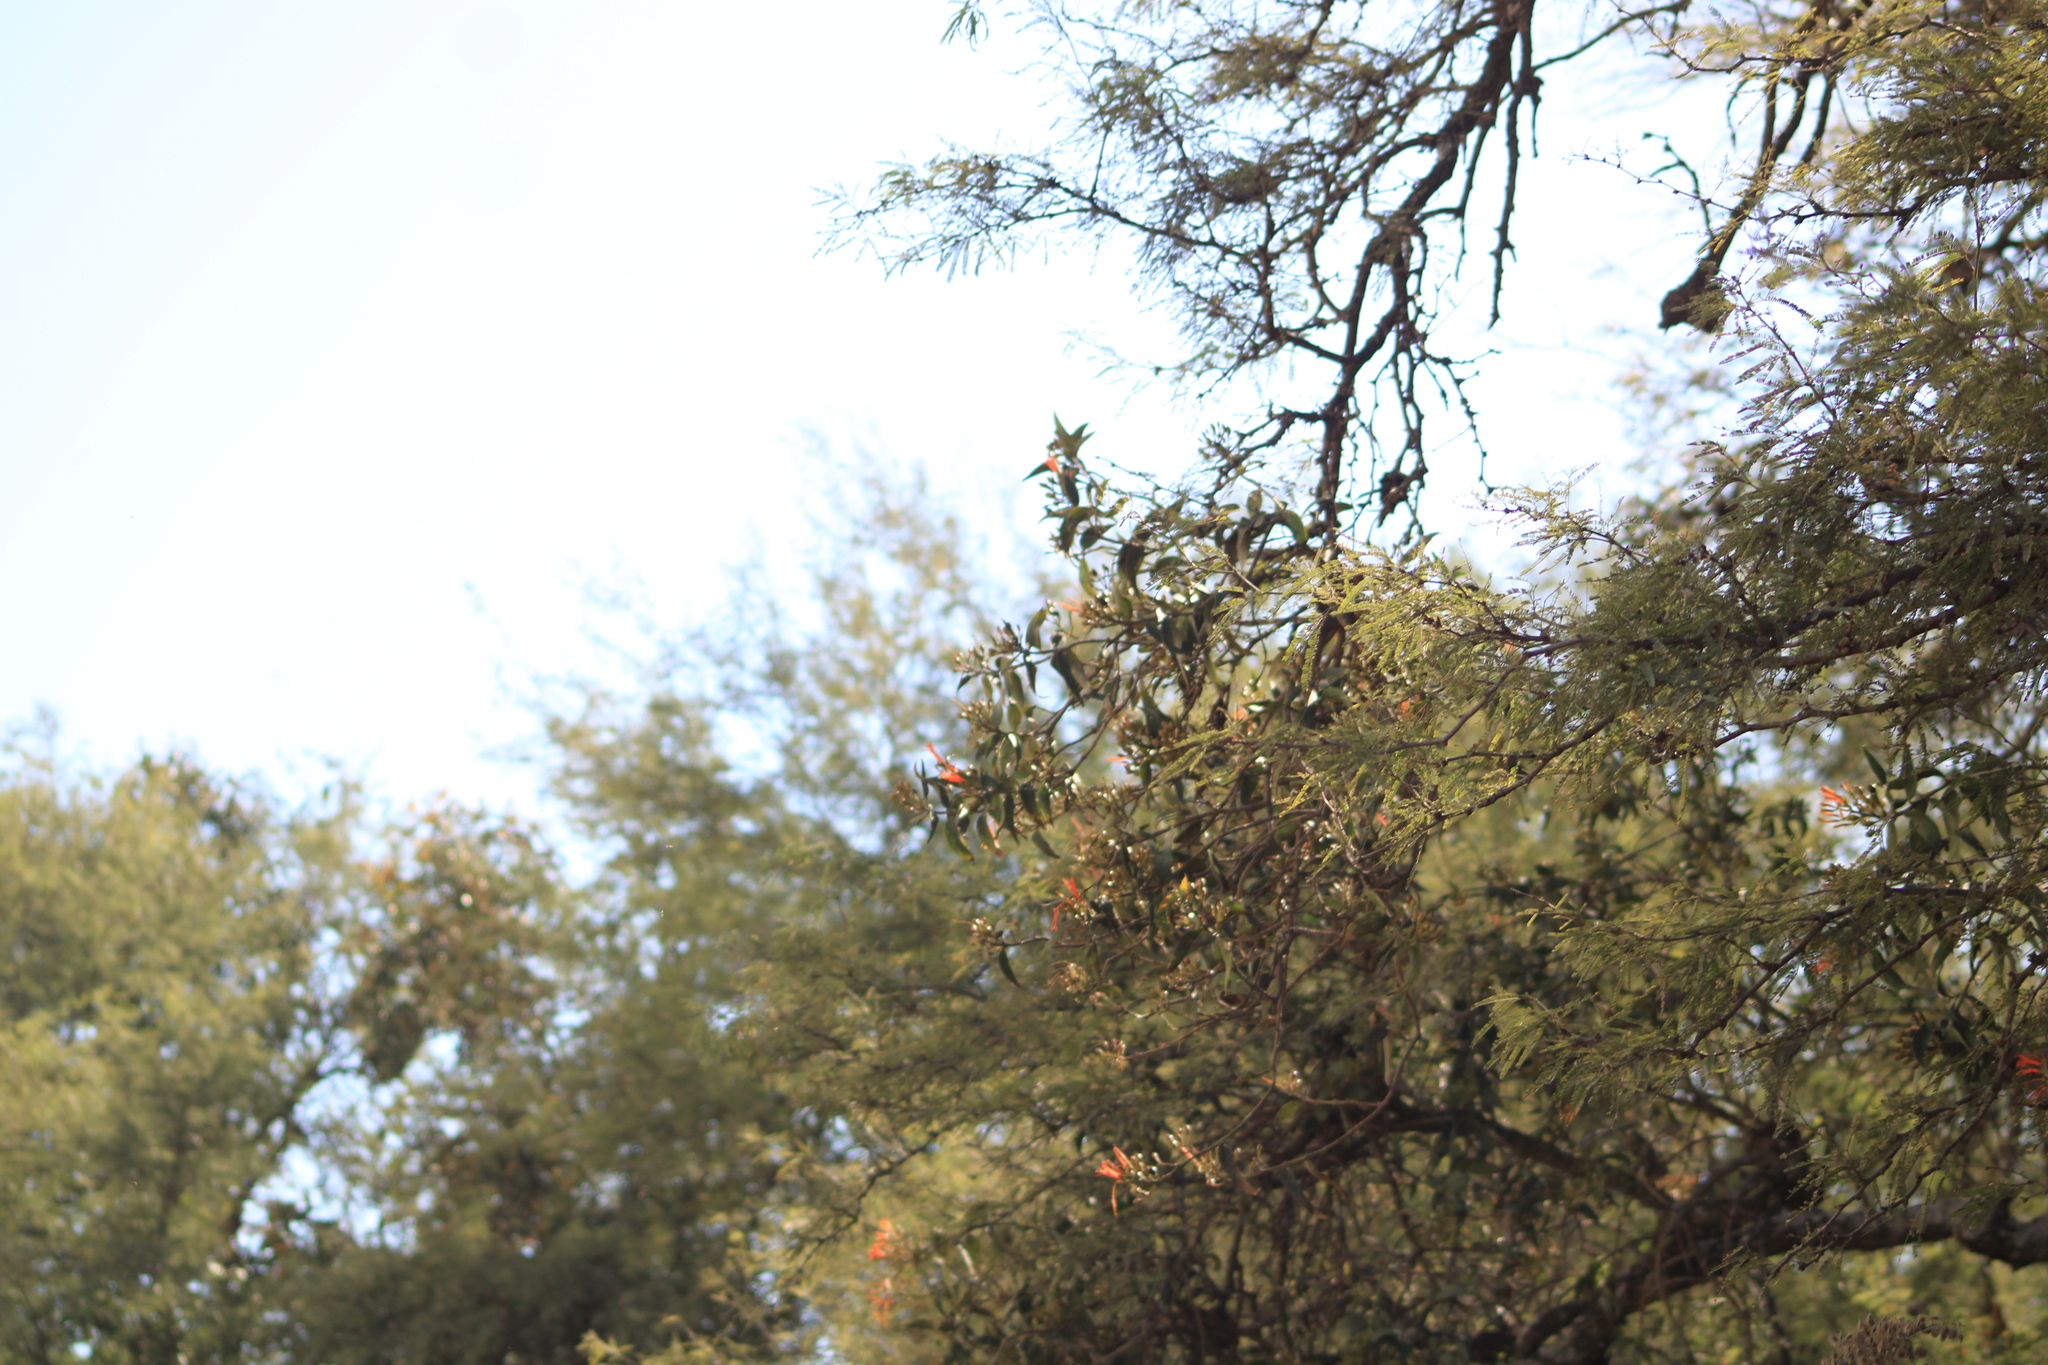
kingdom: Plantae
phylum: Tracheophyta
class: Magnoliopsida
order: Santalales
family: Loranthaceae
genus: Psittacanthus
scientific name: Psittacanthus calyculatus
